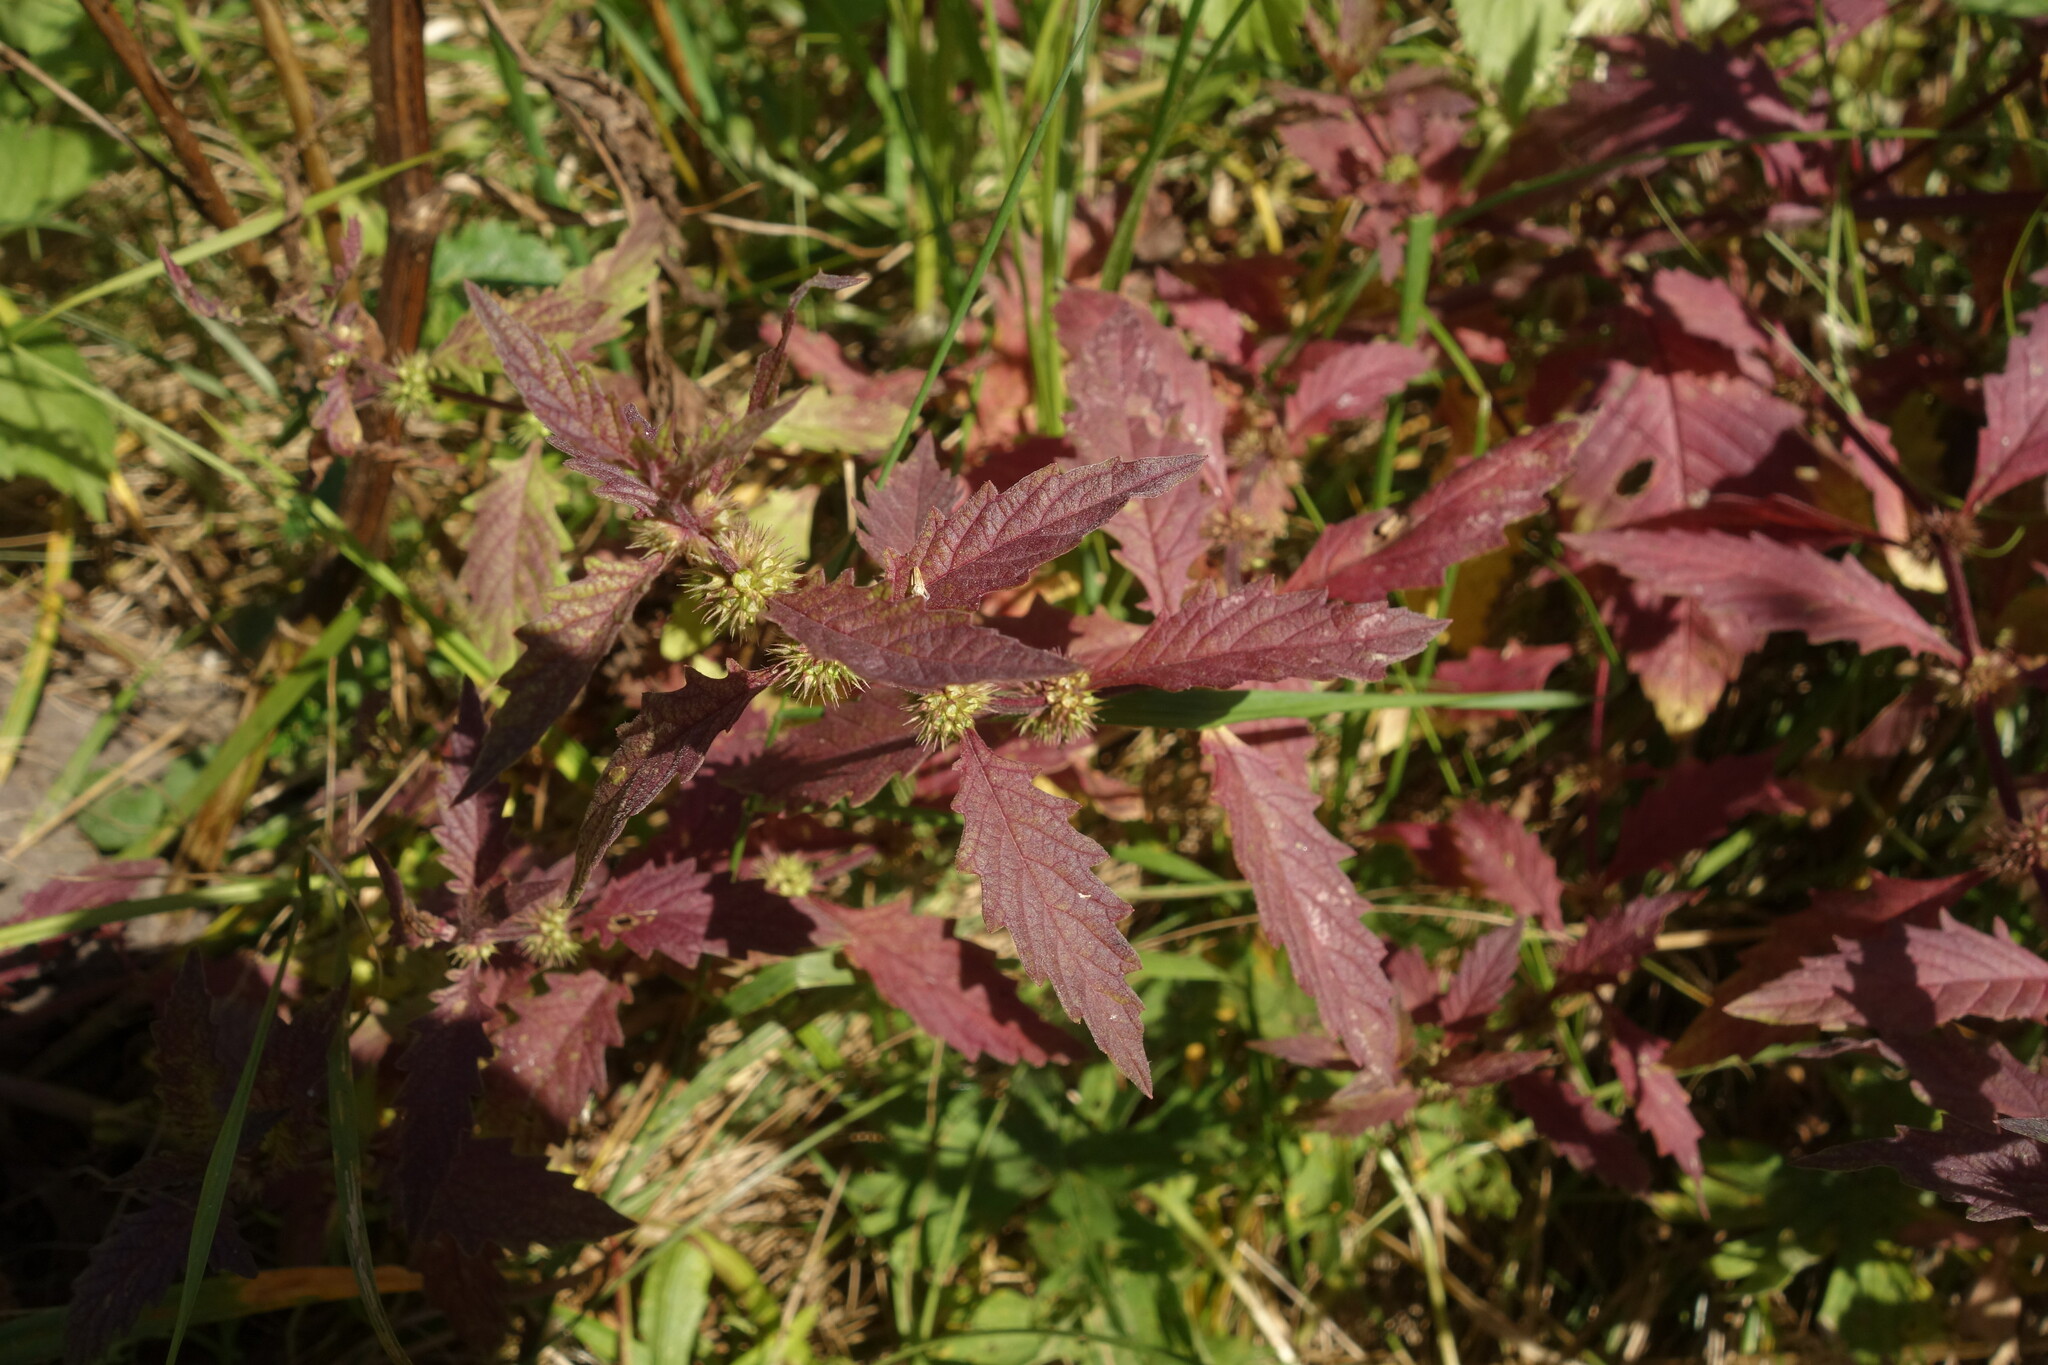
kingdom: Plantae
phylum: Tracheophyta
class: Magnoliopsida
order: Lamiales
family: Lamiaceae
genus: Lycopus
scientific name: Lycopus europaeus
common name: European bugleweed
